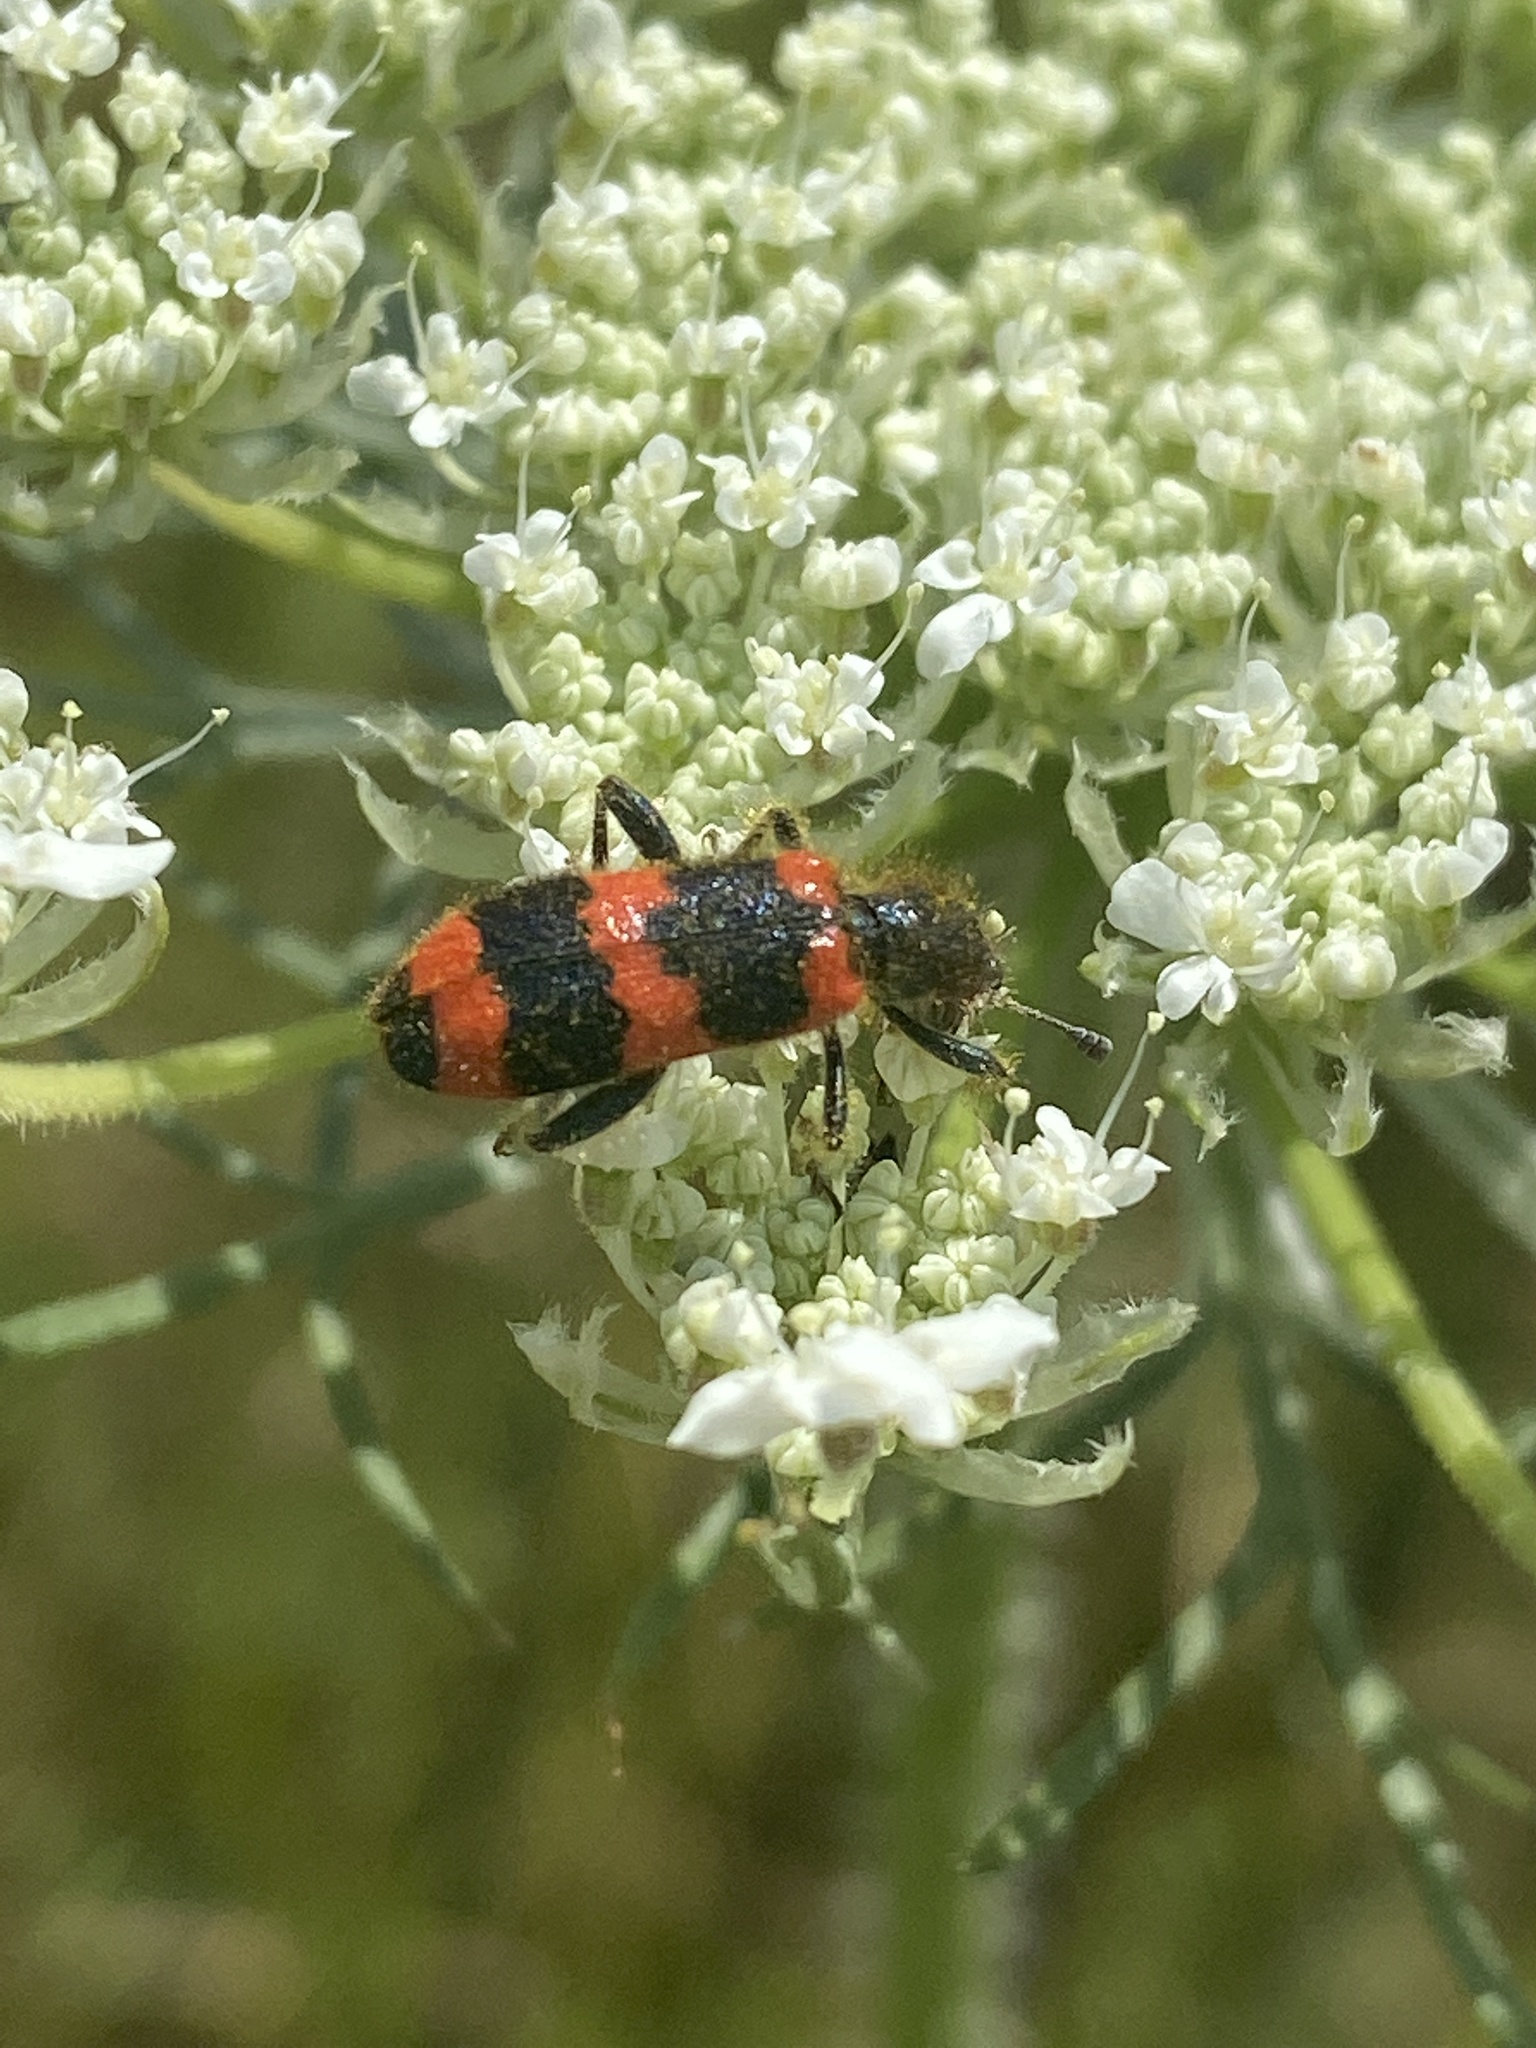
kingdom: Animalia
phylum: Arthropoda
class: Insecta
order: Coleoptera
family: Cleridae
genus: Trichodes
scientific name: Trichodes apiarius
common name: Bee-eating beetle
